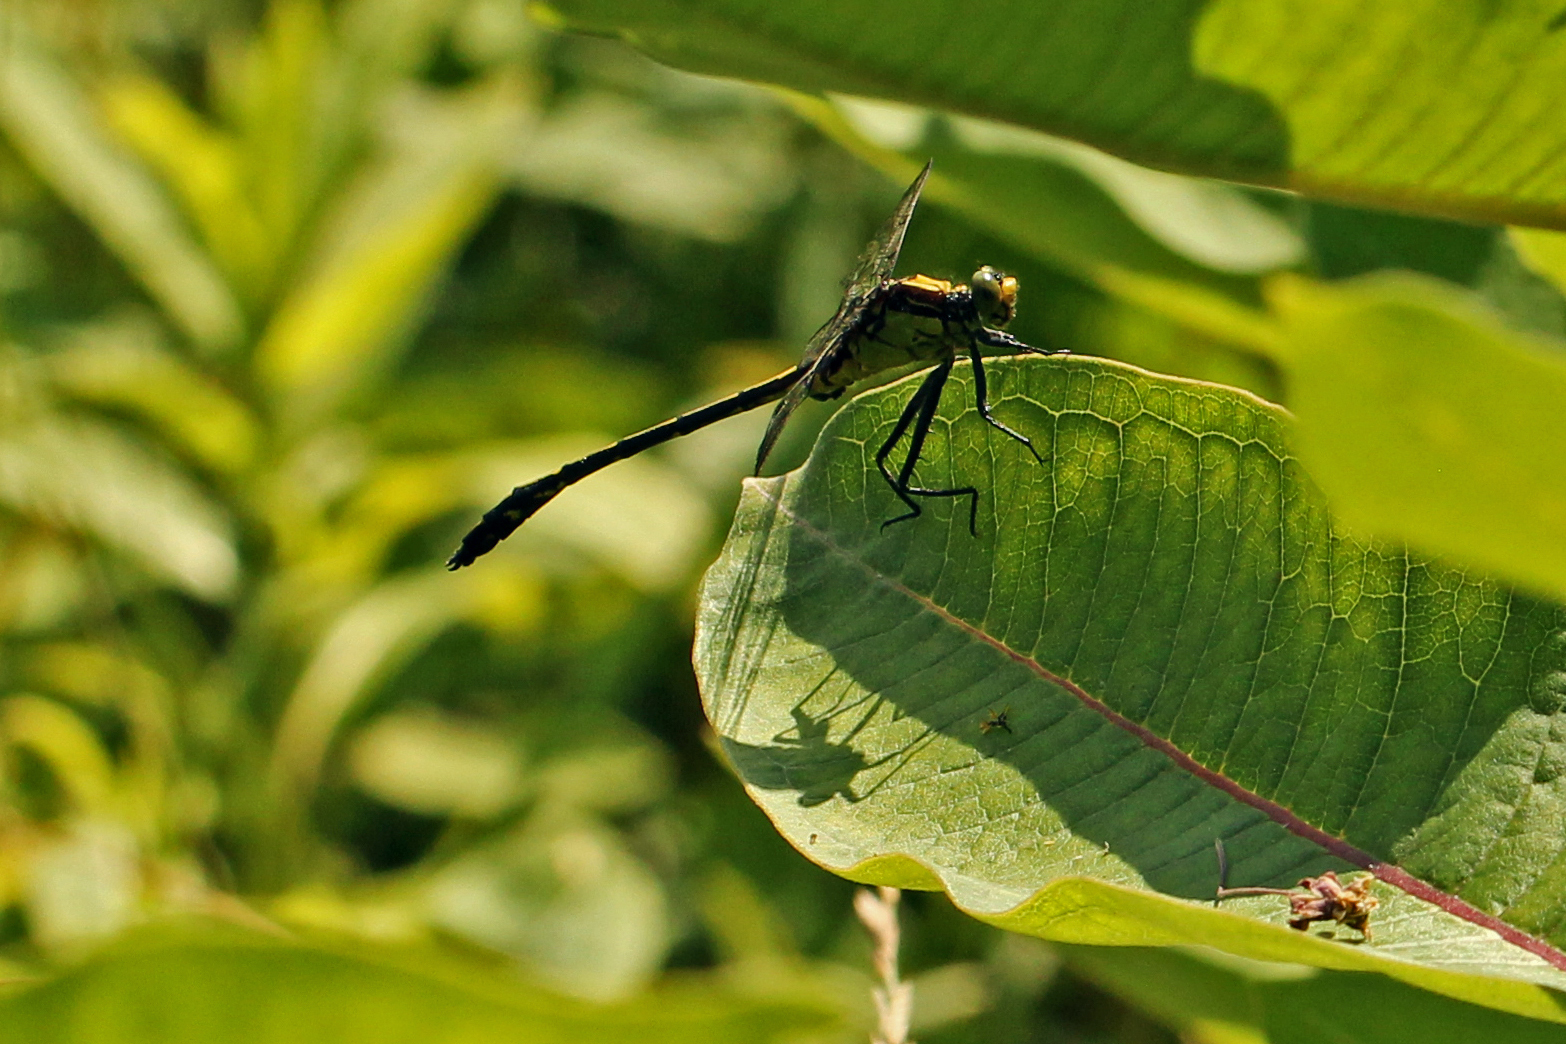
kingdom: Animalia
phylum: Arthropoda
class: Insecta
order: Odonata
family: Gomphidae
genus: Dromogomphus
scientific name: Dromogomphus spinosus
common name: Black-shouldered spinyleg
